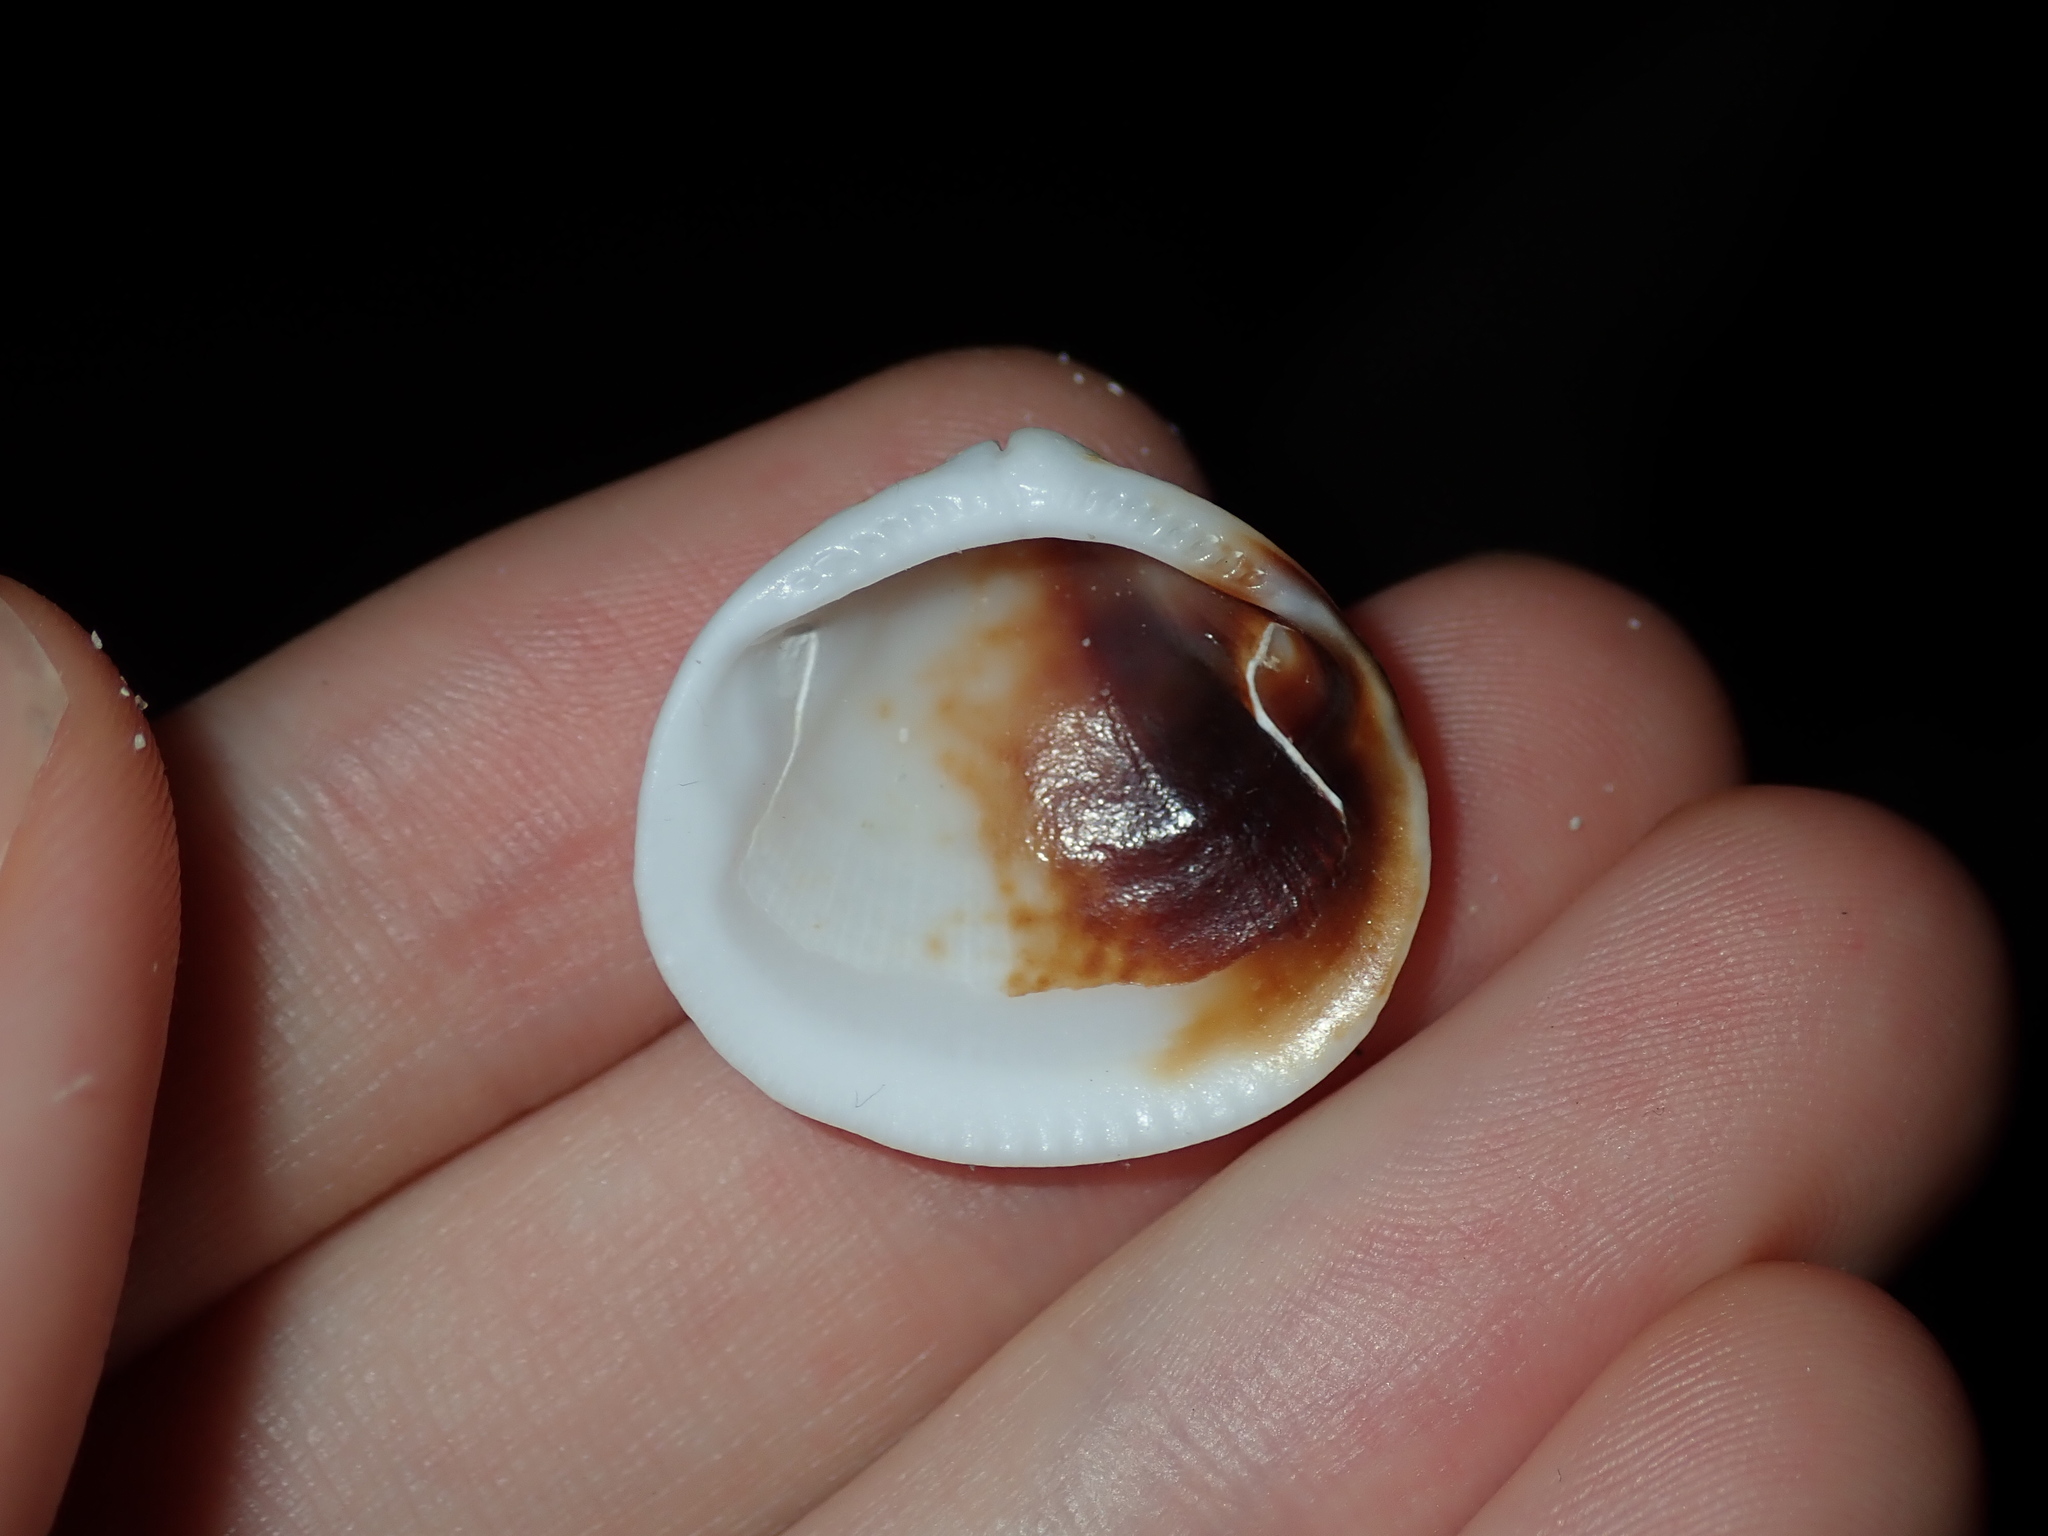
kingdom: Animalia
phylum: Mollusca
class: Bivalvia
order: Arcida
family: Glycymerididae
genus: Glycymeris
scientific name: Glycymeris persimilis
